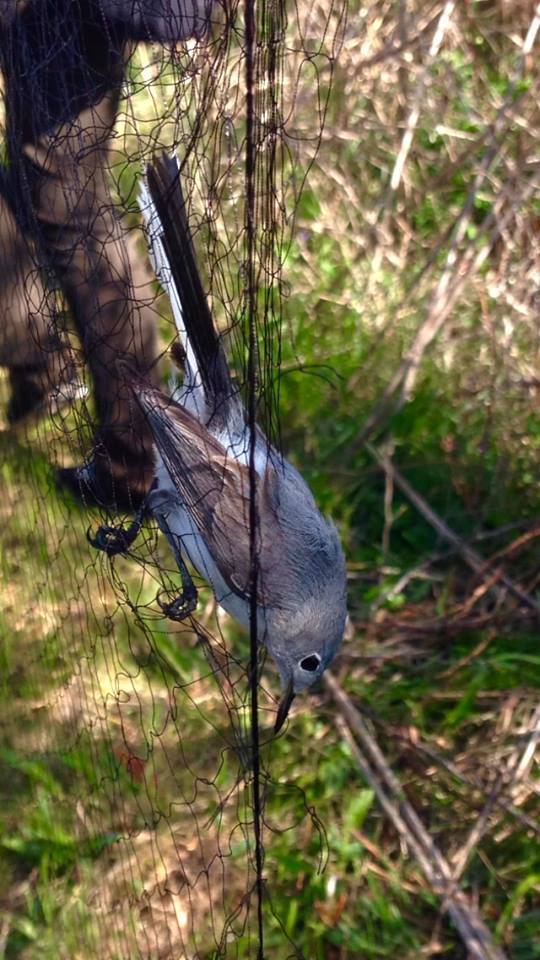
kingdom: Animalia
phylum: Chordata
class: Aves
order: Passeriformes
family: Polioptilidae
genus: Polioptila
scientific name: Polioptila caerulea
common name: Blue-gray gnatcatcher
